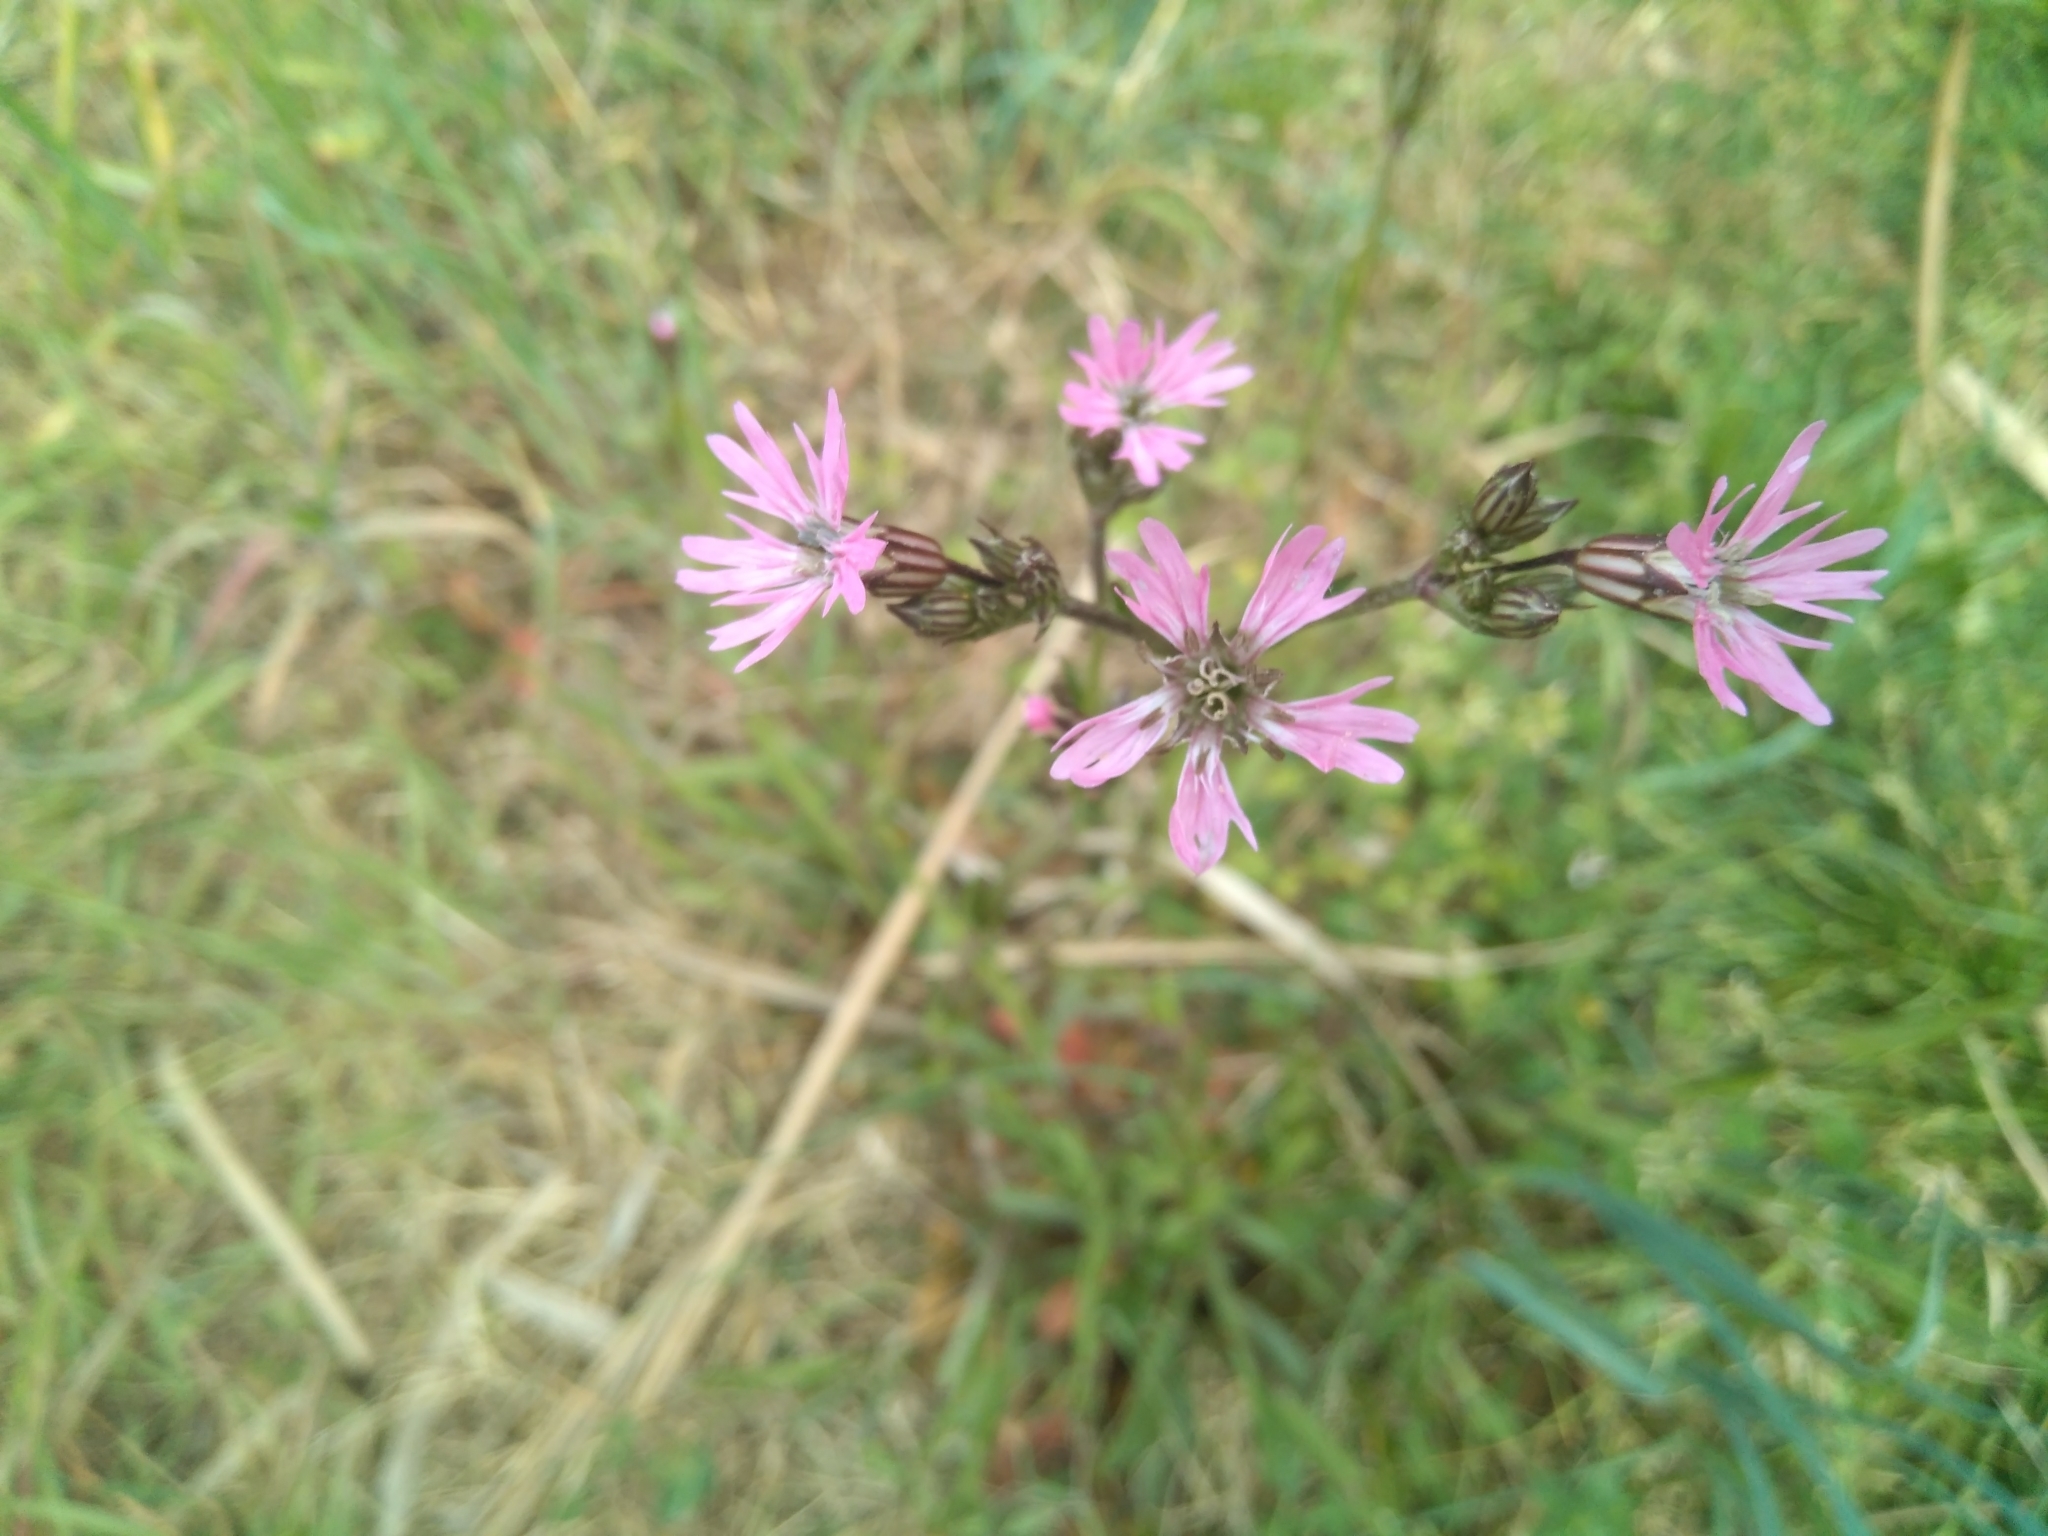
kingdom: Plantae
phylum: Tracheophyta
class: Magnoliopsida
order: Caryophyllales
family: Caryophyllaceae
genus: Silene
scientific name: Silene flos-cuculi
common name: Ragged-robin
